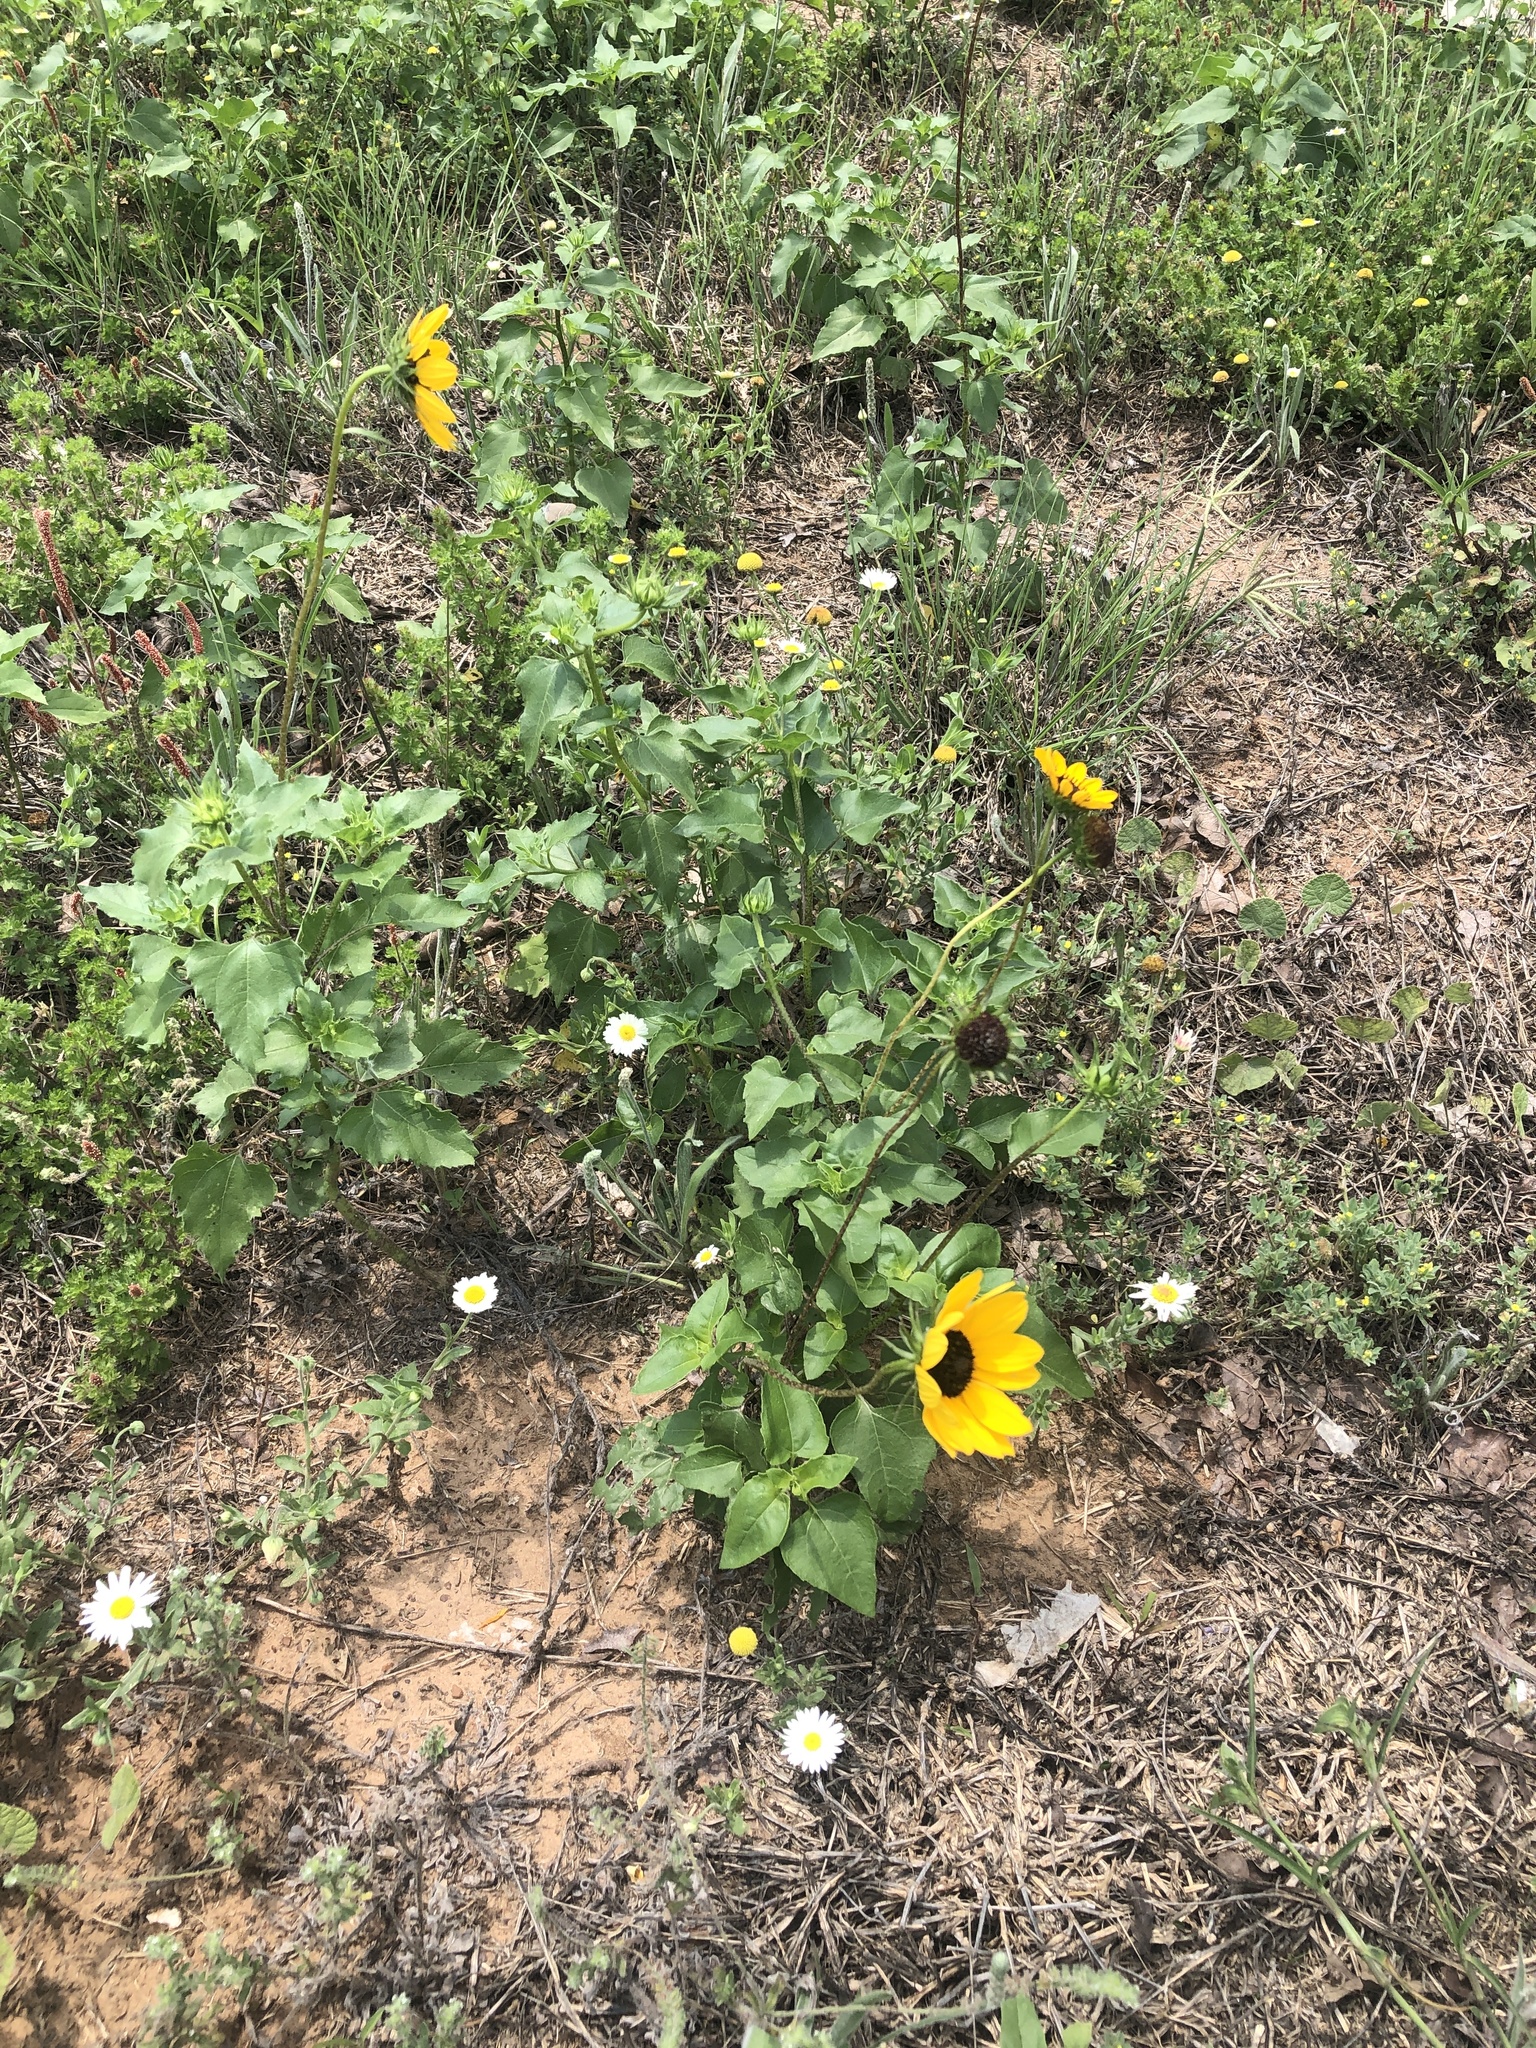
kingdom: Plantae
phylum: Tracheophyta
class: Magnoliopsida
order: Asterales
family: Asteraceae
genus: Helianthus
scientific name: Helianthus debilis
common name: Weak sunflower
